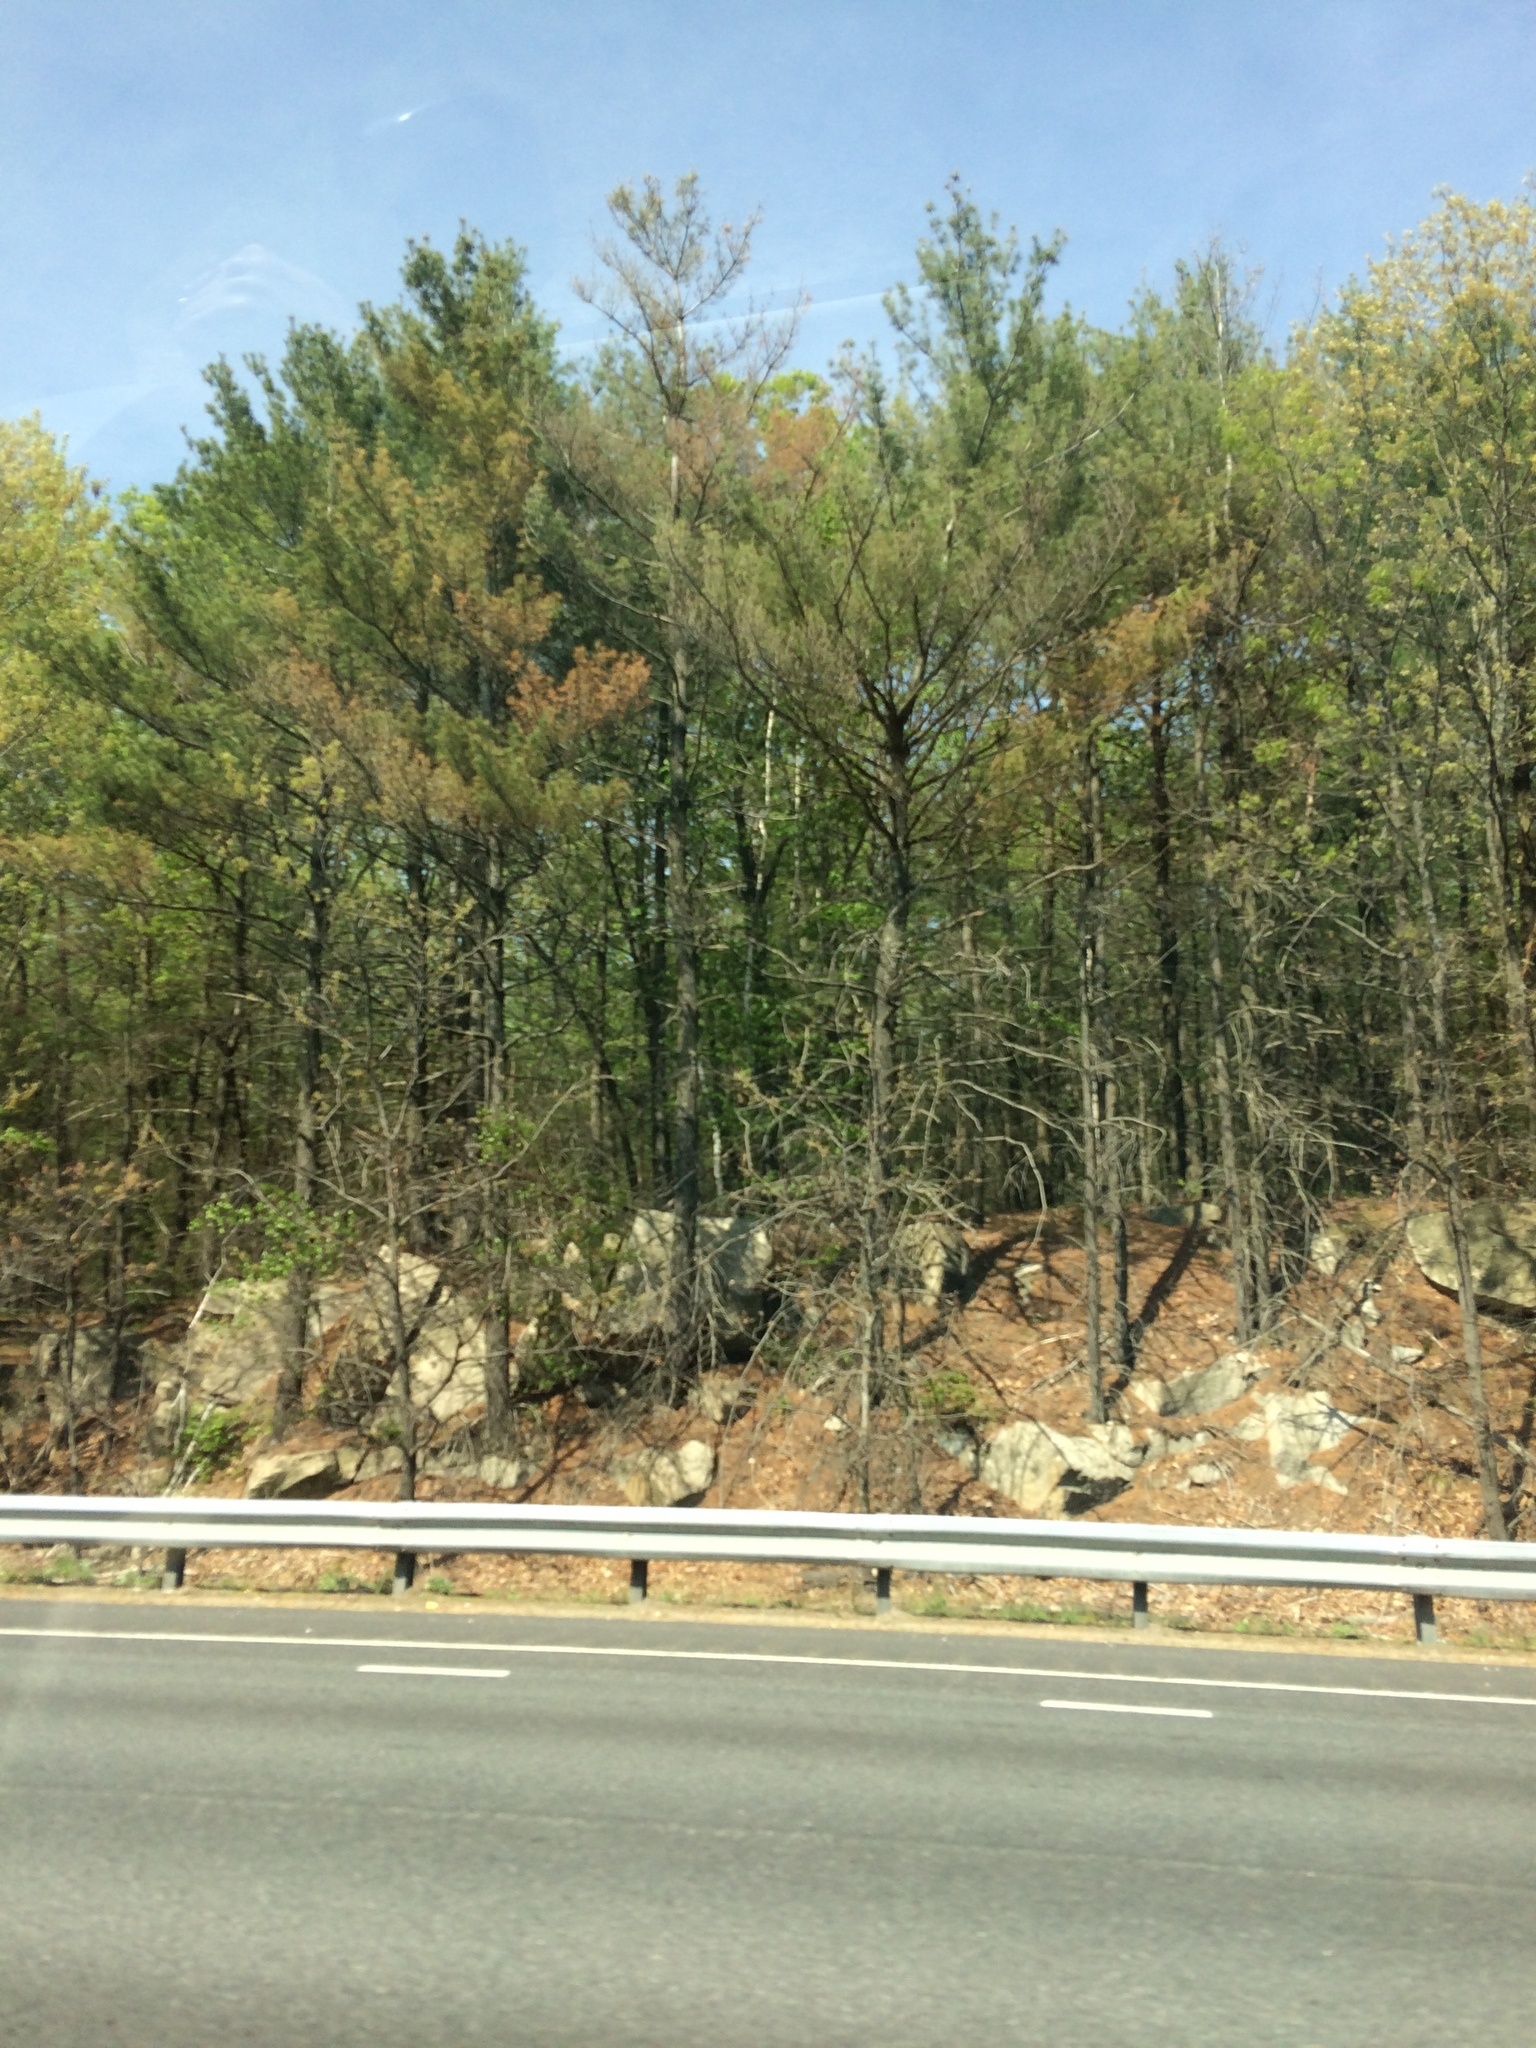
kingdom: Plantae
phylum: Tracheophyta
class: Pinopsida
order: Pinales
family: Pinaceae
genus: Pinus
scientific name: Pinus strobus
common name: Weymouth pine
